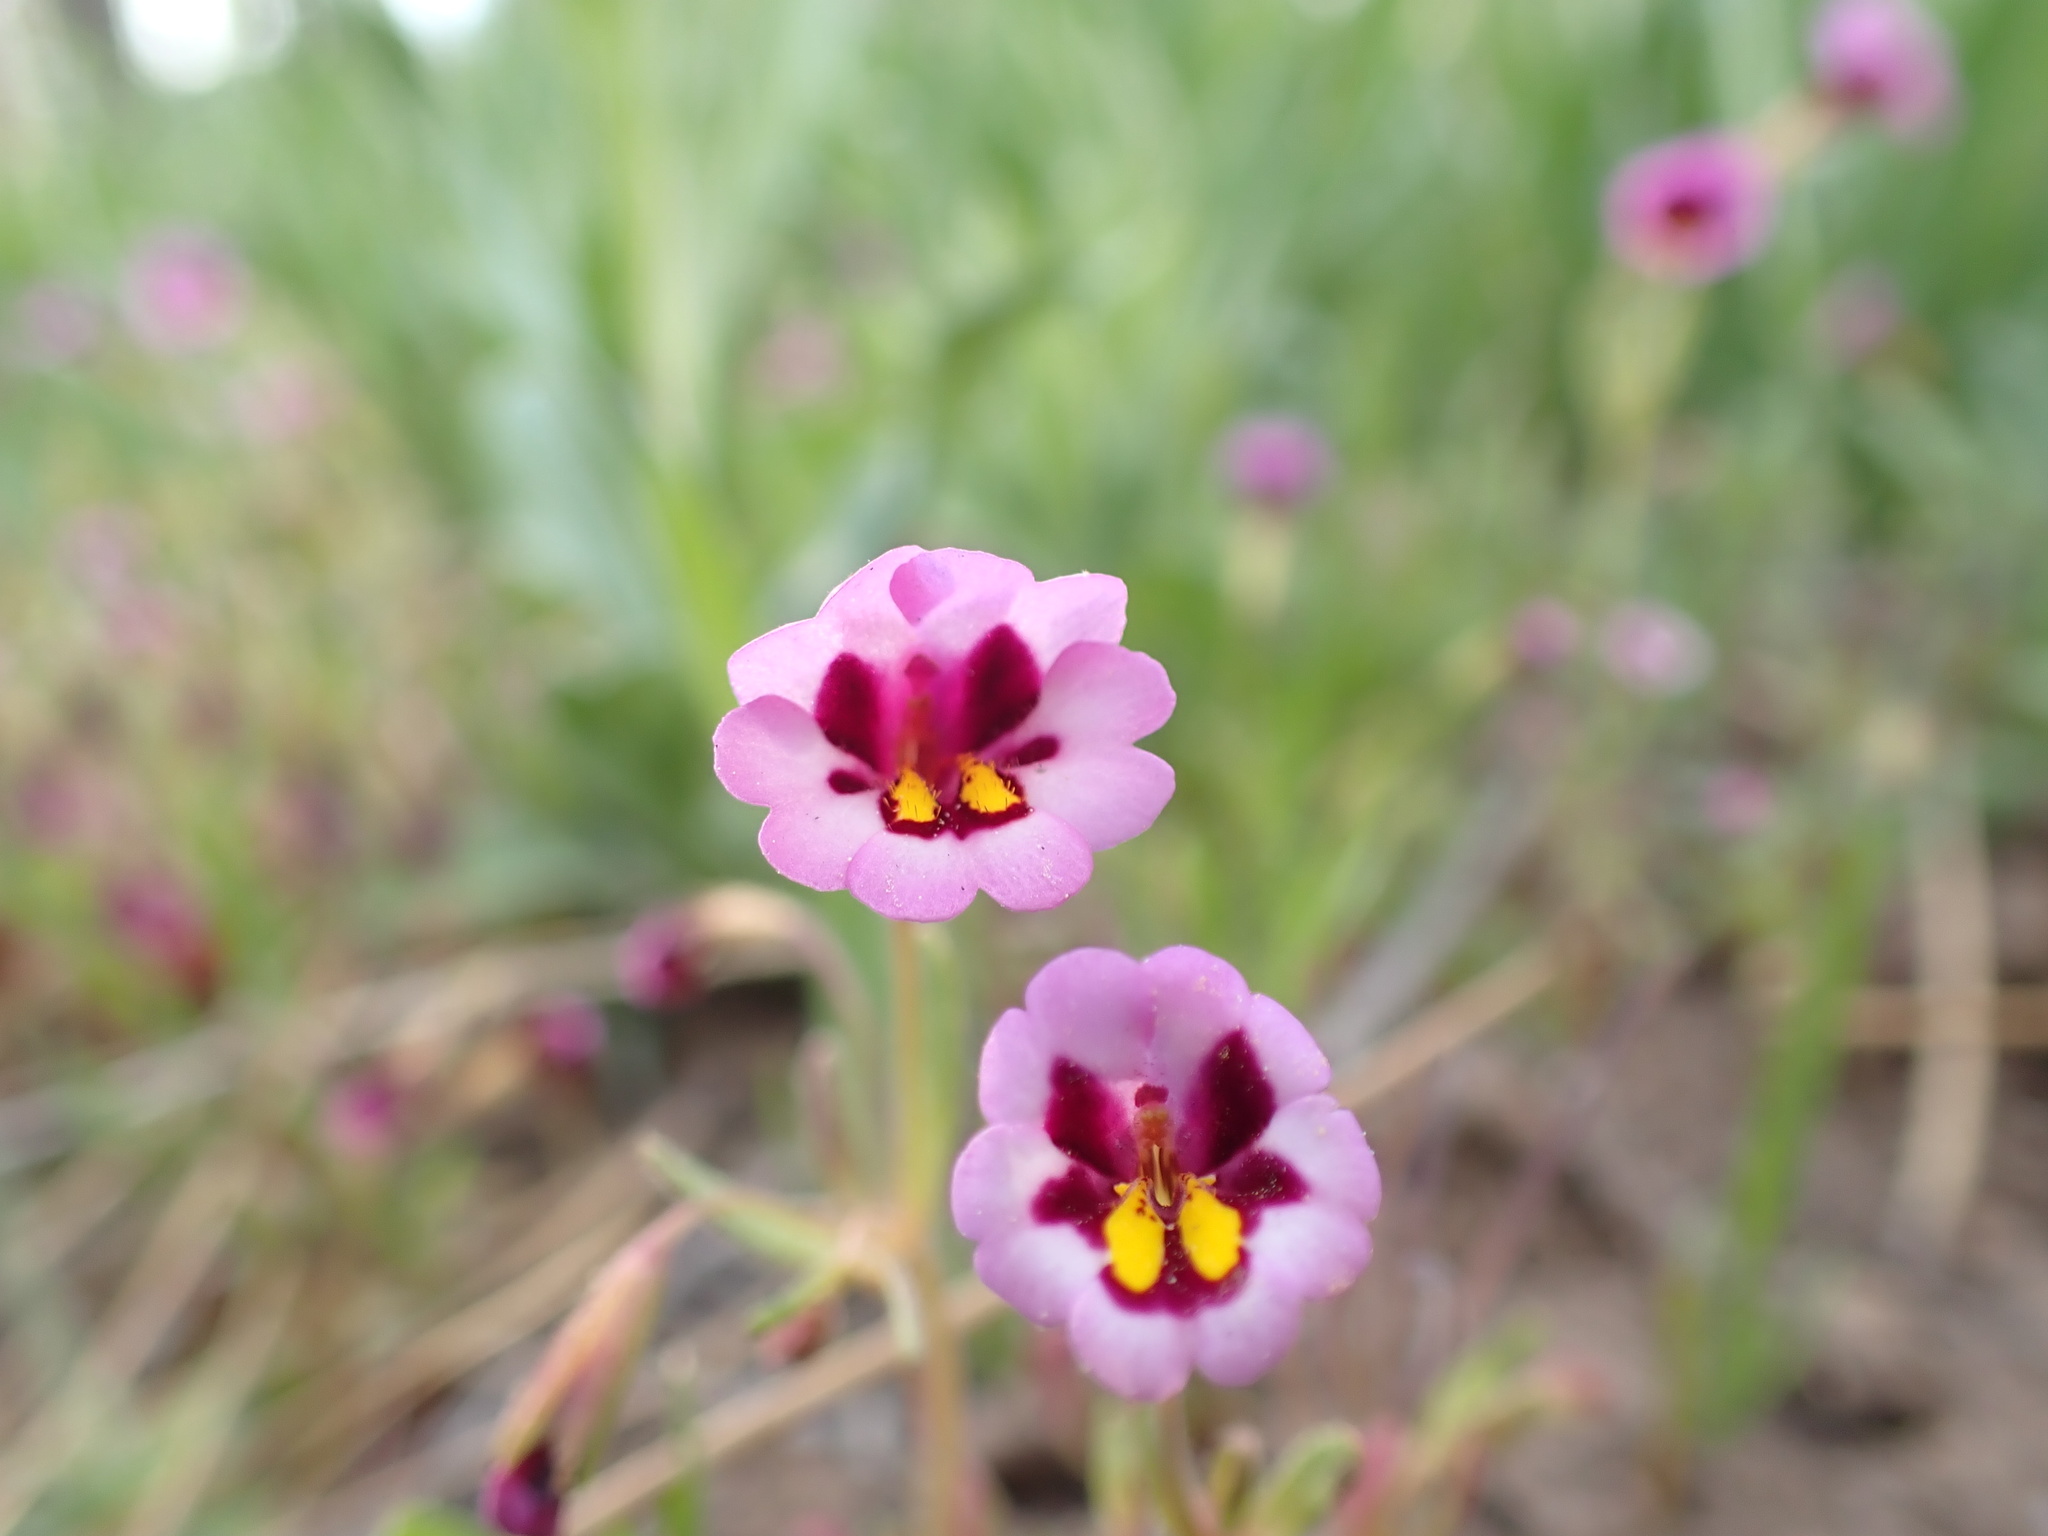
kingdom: Plantae
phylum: Tracheophyta
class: Magnoliopsida
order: Lamiales
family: Phrymaceae
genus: Erythranthe
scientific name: Erythranthe filicaulis
